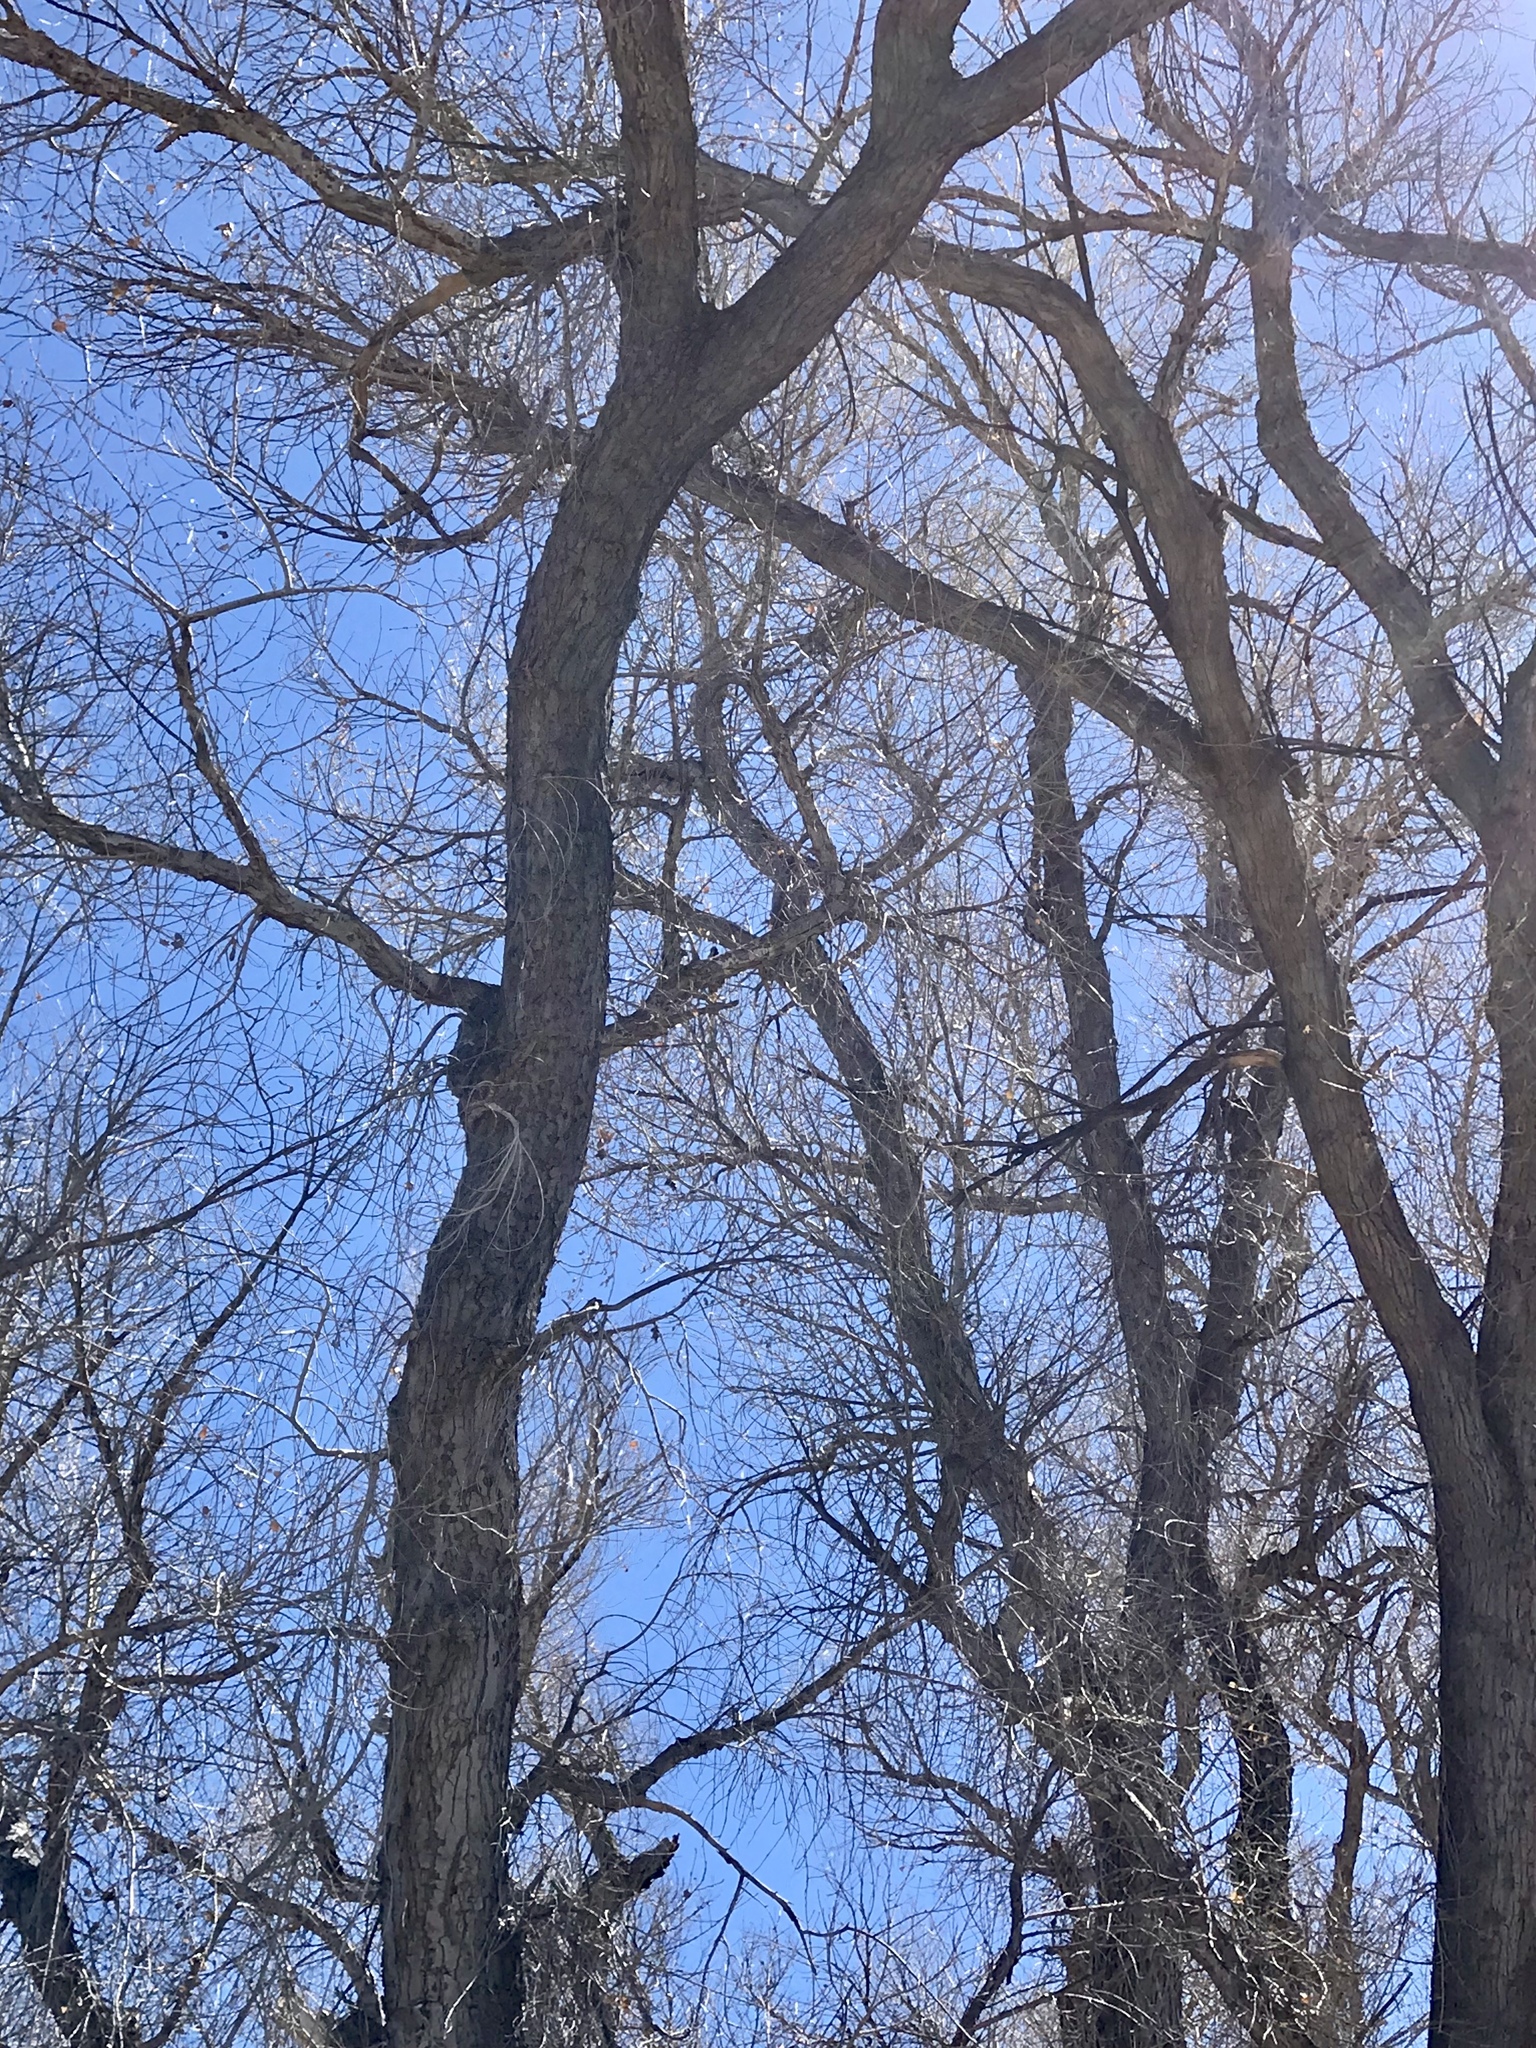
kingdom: Plantae
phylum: Tracheophyta
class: Magnoliopsida
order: Malpighiales
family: Salicaceae
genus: Populus
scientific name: Populus fremontii
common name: Fremont's cottonwood
